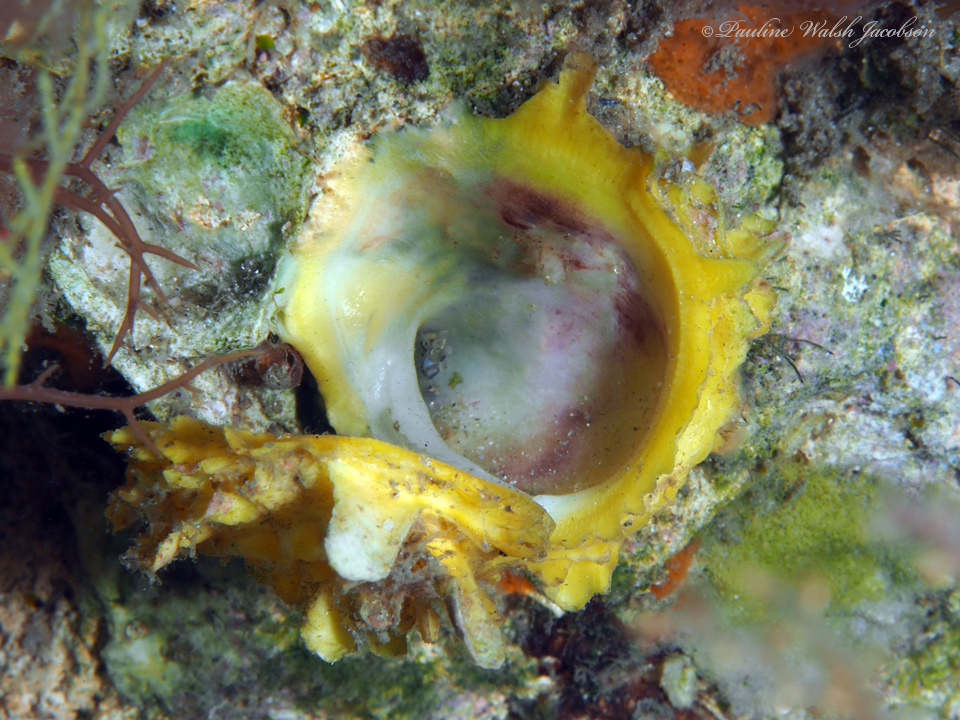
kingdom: Animalia
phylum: Mollusca
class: Bivalvia
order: Venerida
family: Chamidae
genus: Chama
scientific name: Chama macerophylla
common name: Leafy jewelbox
